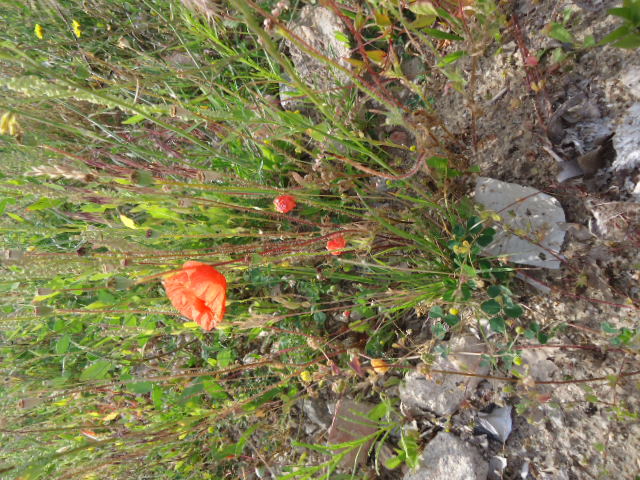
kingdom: Plantae
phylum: Tracheophyta
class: Magnoliopsida
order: Ranunculales
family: Papaveraceae
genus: Papaver
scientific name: Papaver rhoeas
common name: Corn poppy
